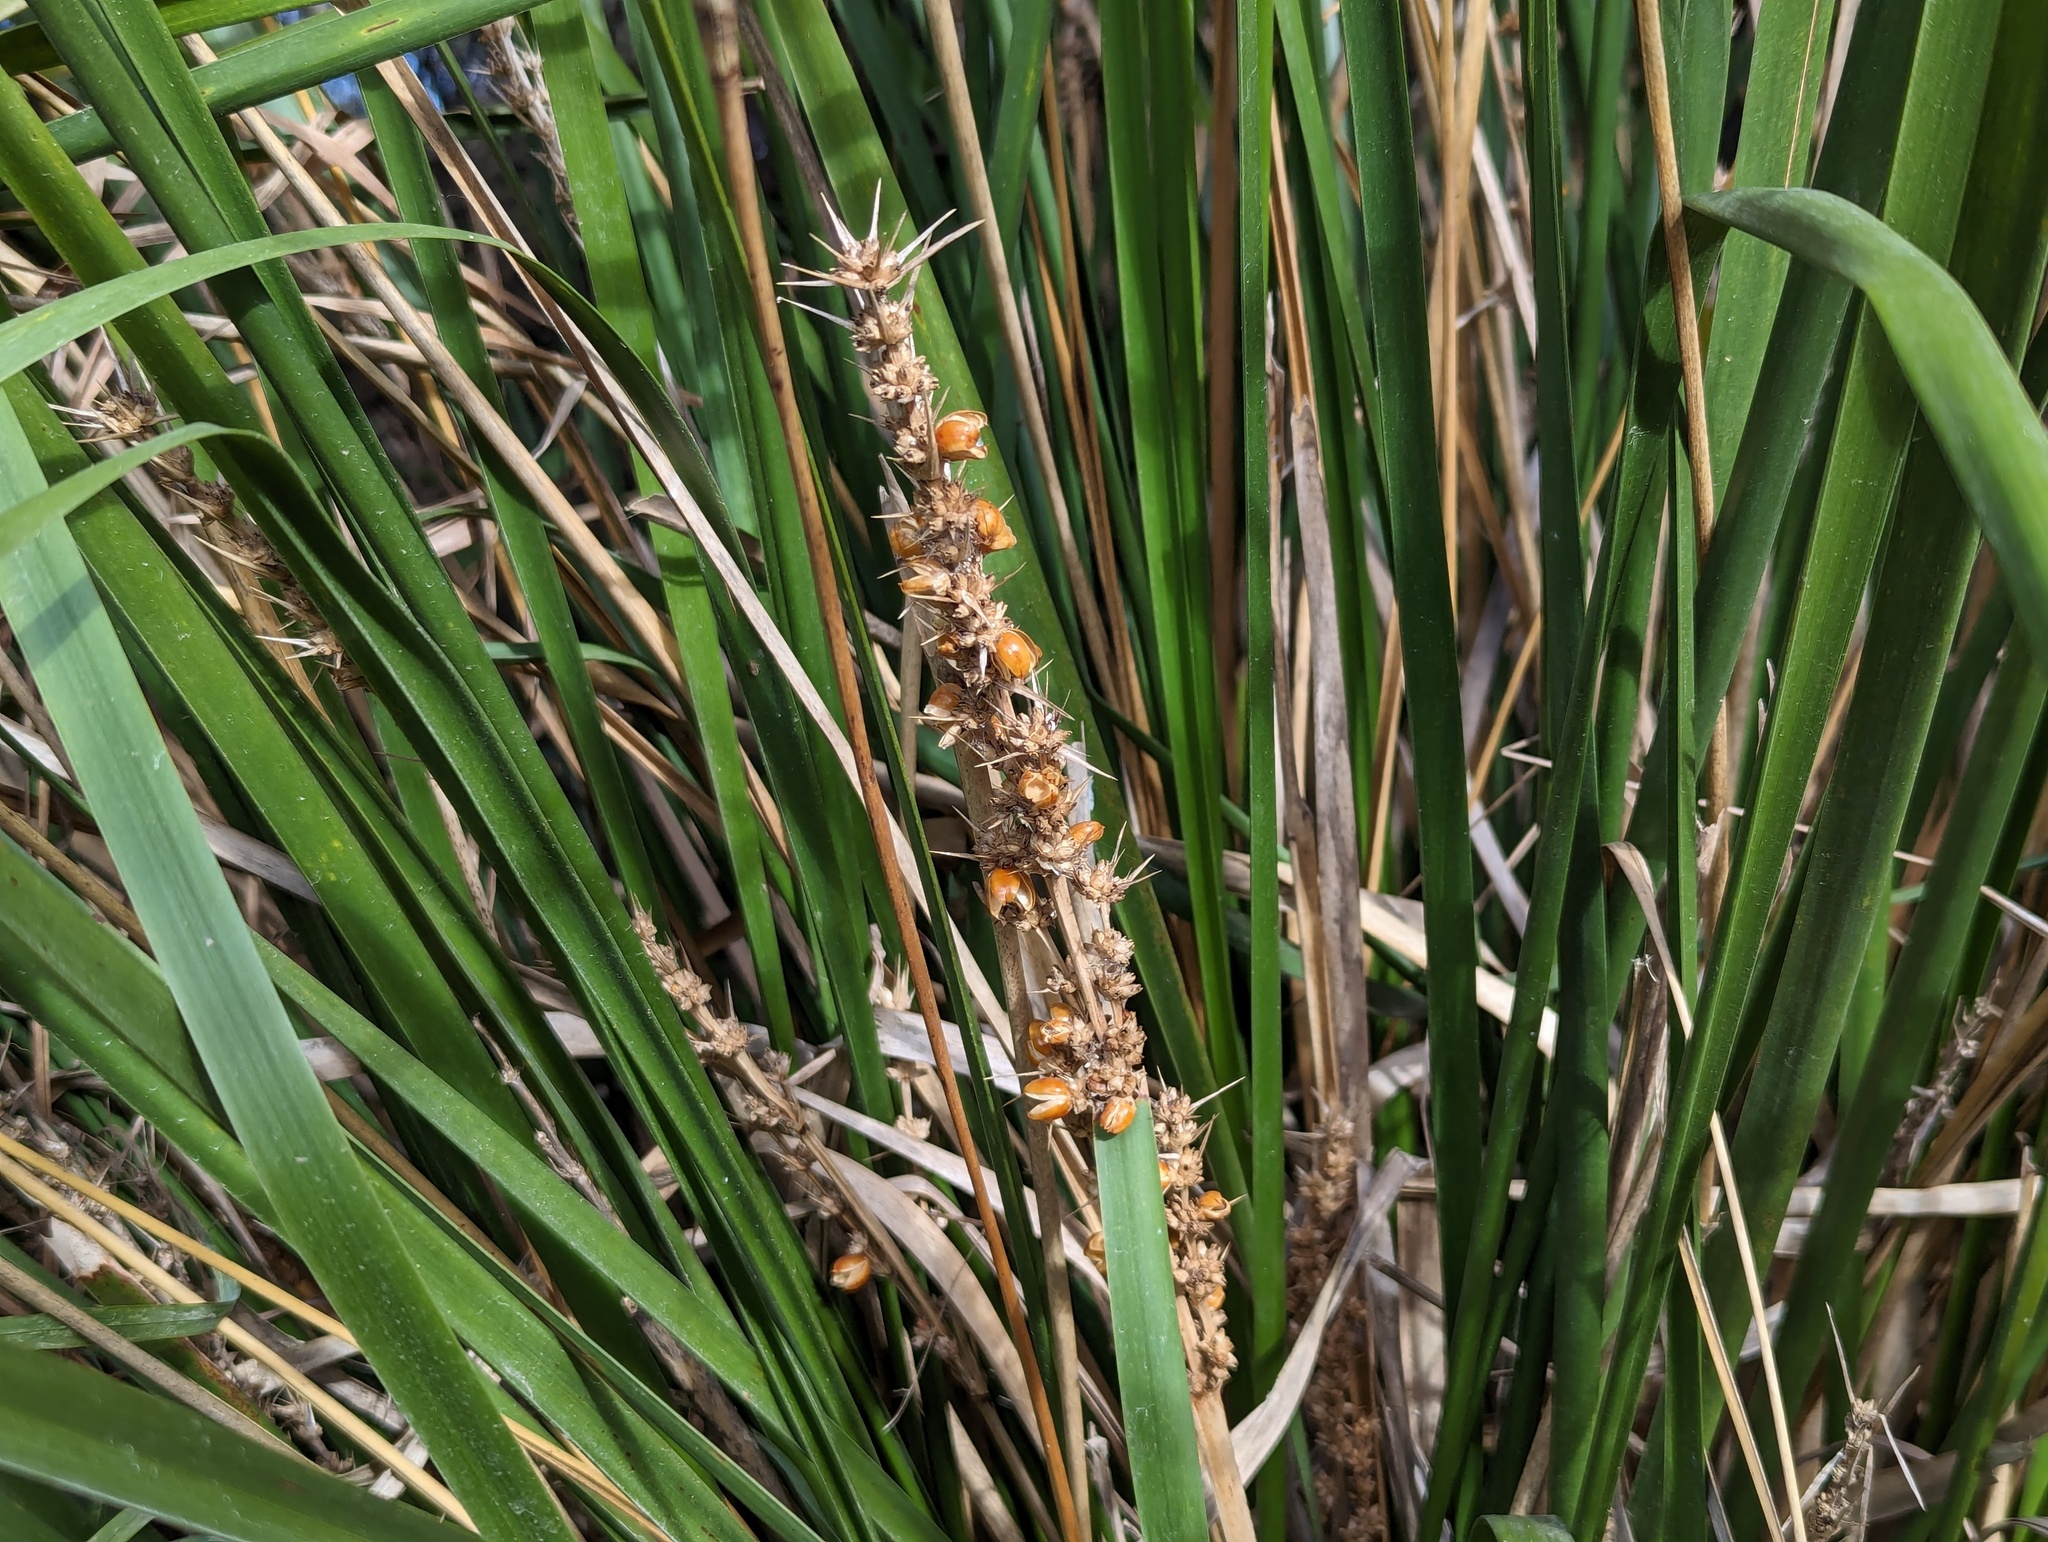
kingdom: Plantae
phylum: Tracheophyta
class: Liliopsida
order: Asparagales
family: Asparagaceae
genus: Lomandra
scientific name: Lomandra longifolia
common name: Longleaf mat-rush
